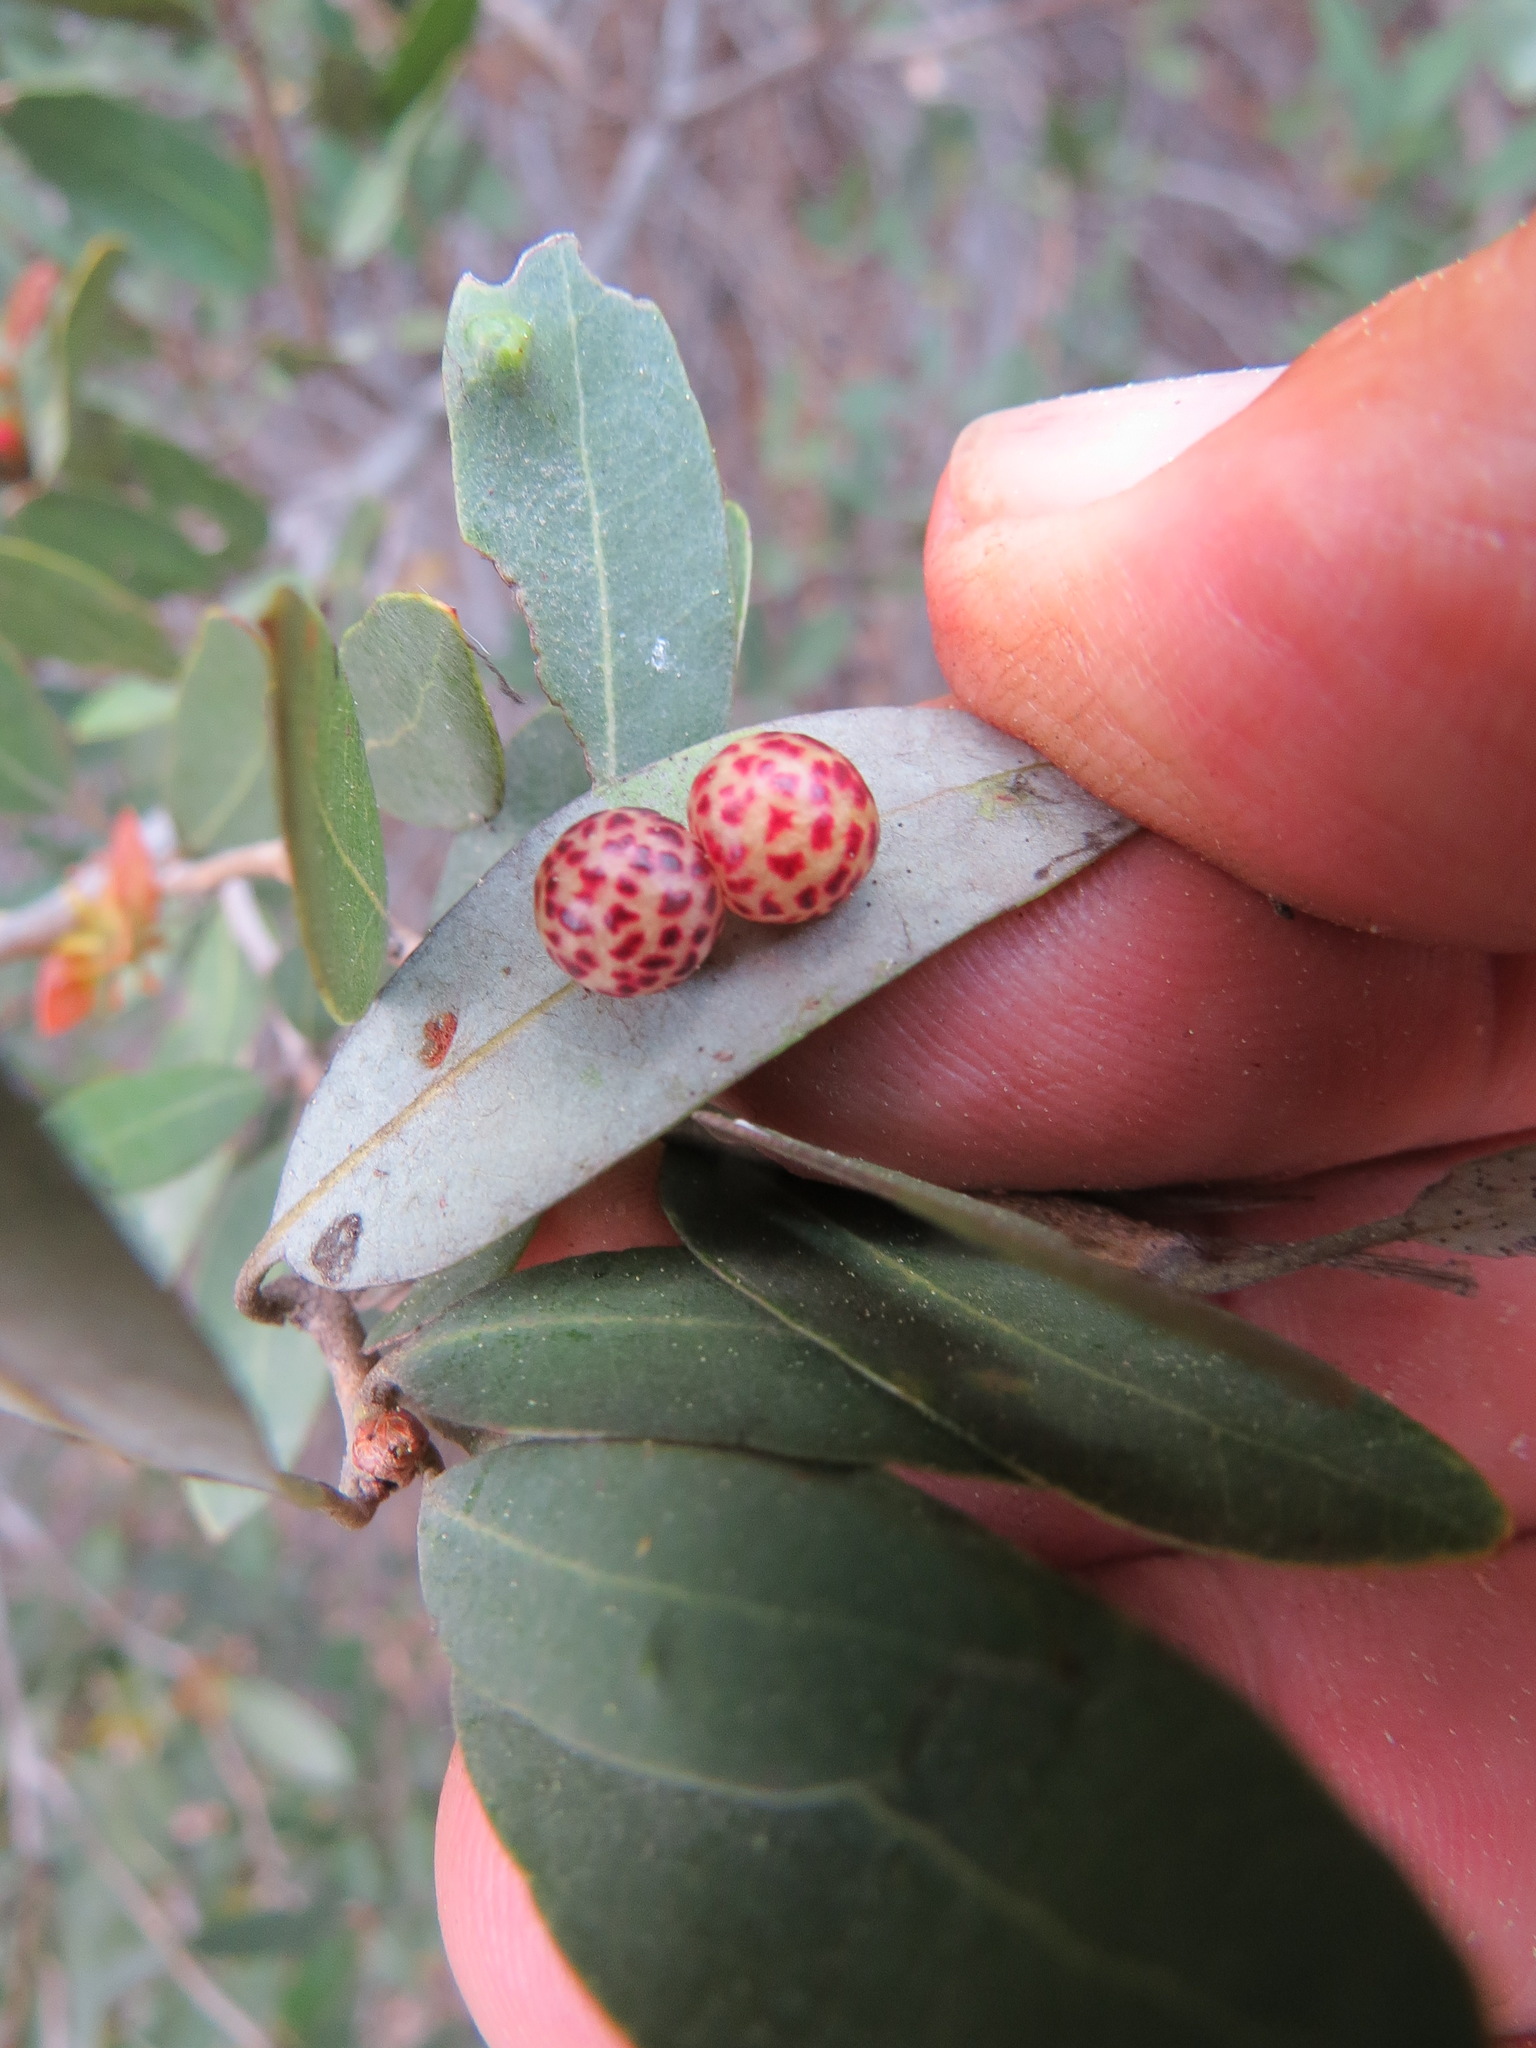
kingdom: Animalia
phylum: Arthropoda
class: Insecta
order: Hymenoptera
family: Cynipidae
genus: Andricus
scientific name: Andricus
